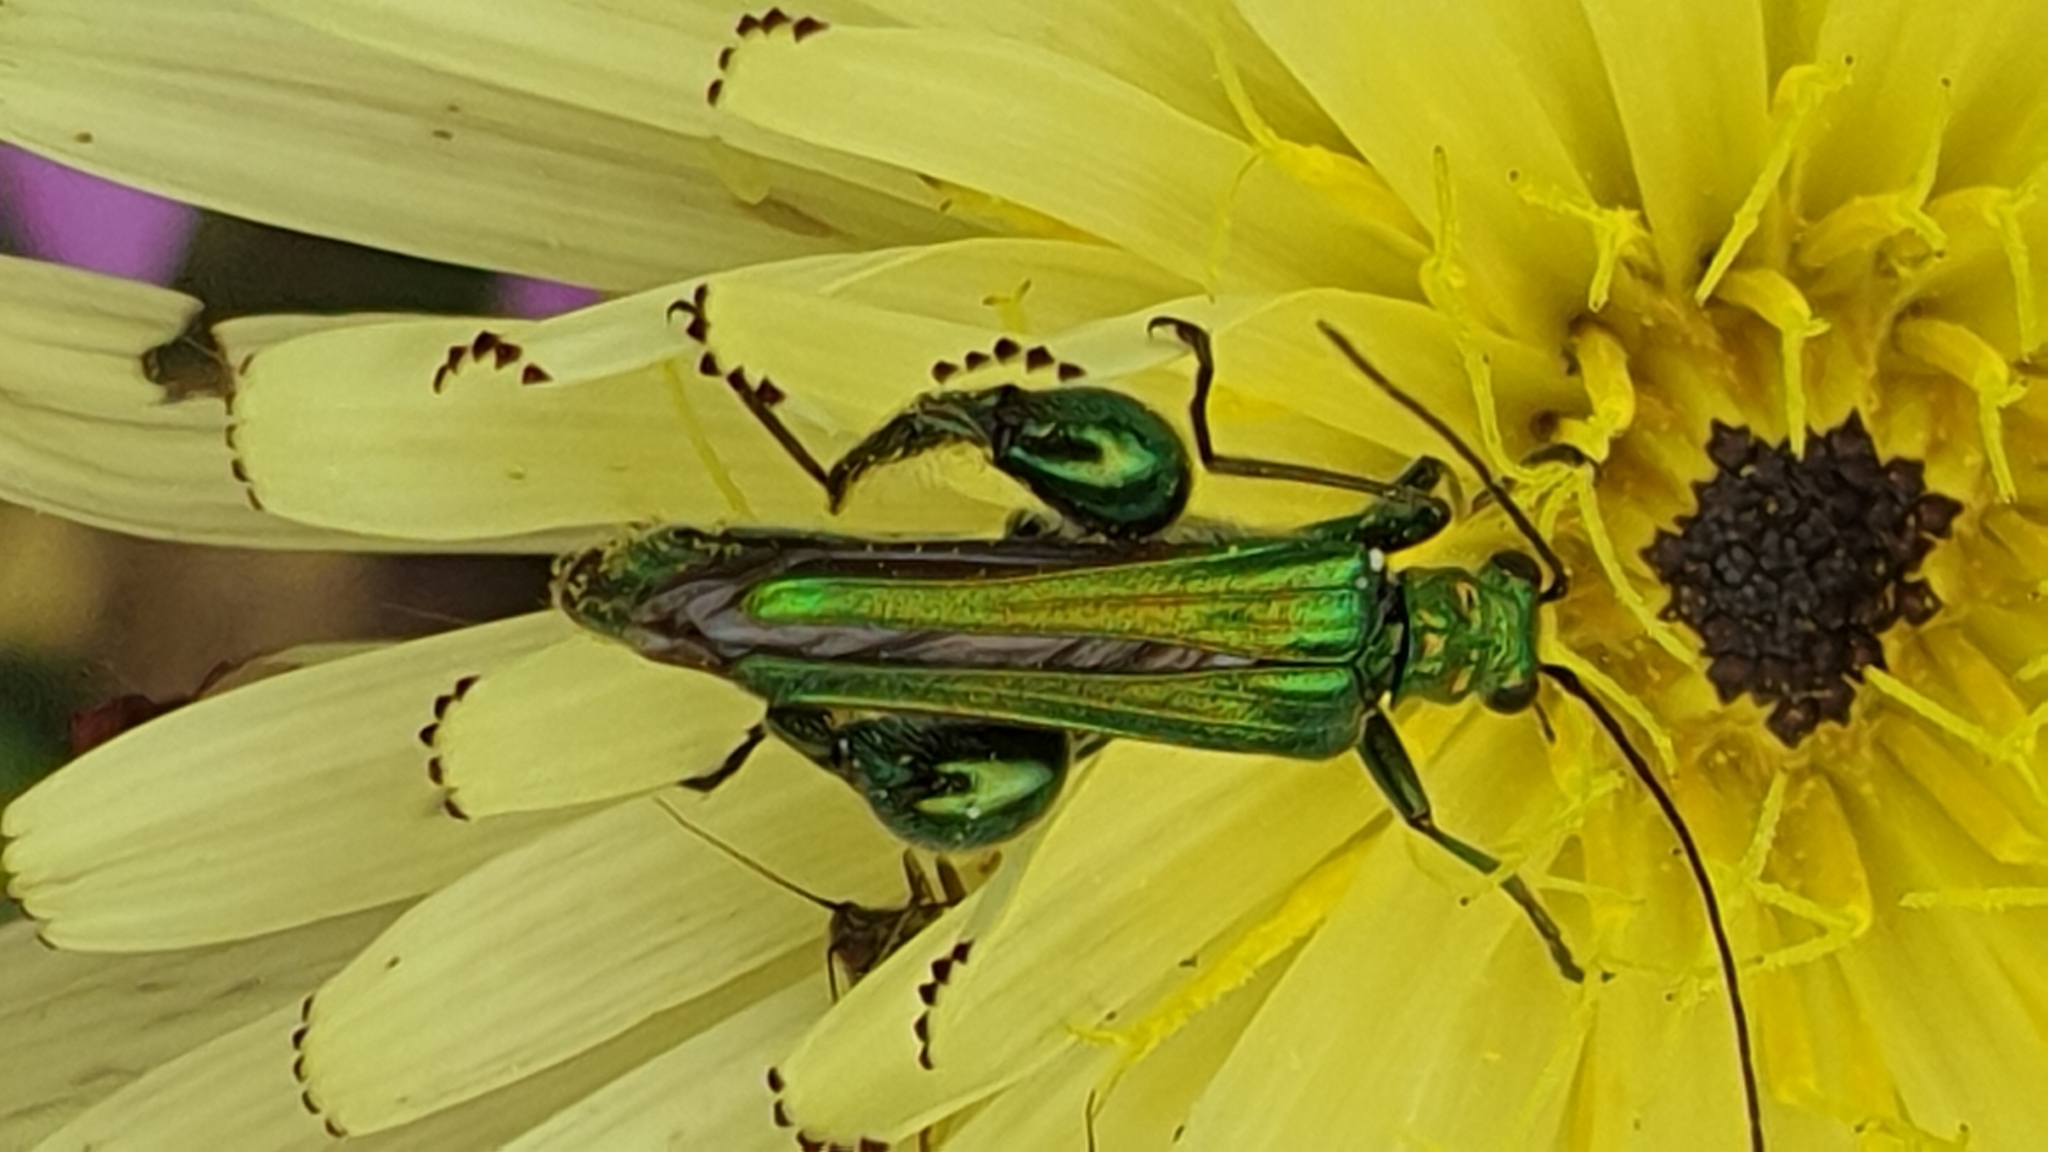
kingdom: Animalia
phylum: Arthropoda
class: Insecta
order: Coleoptera
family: Oedemeridae
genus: Oedemera
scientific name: Oedemera nobilis
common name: Swollen-thighed beetle
